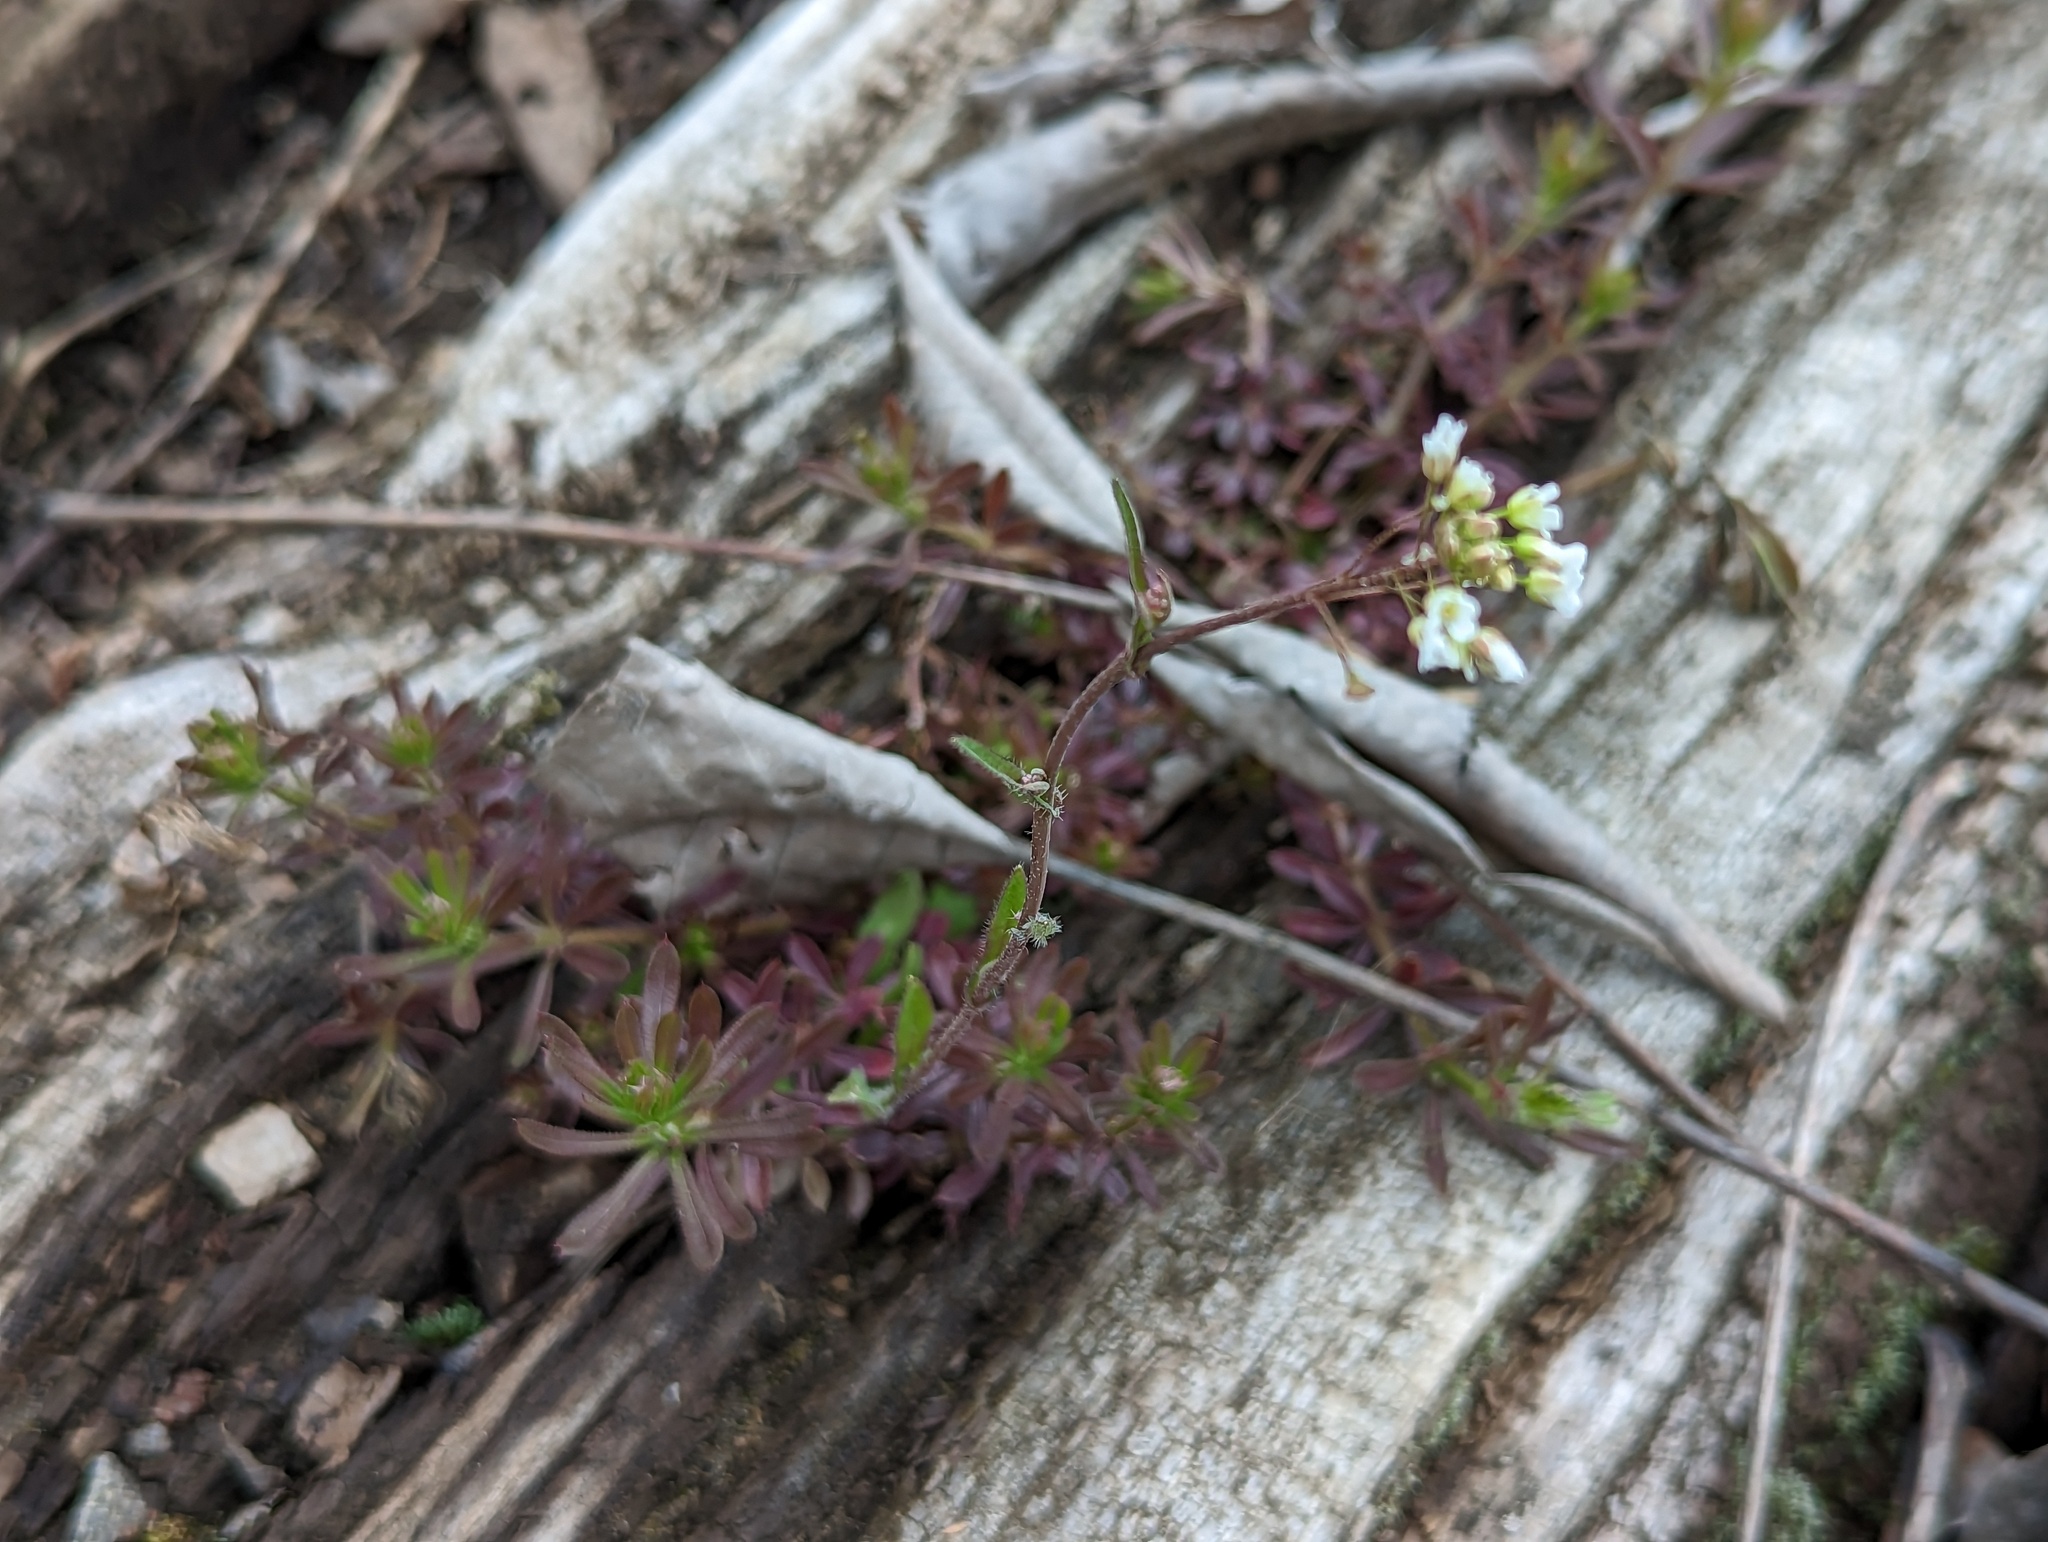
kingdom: Plantae
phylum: Tracheophyta
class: Magnoliopsida
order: Brassicales
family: Brassicaceae
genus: Capsella
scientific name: Capsella bursa-pastoris
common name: Shepherd's purse
